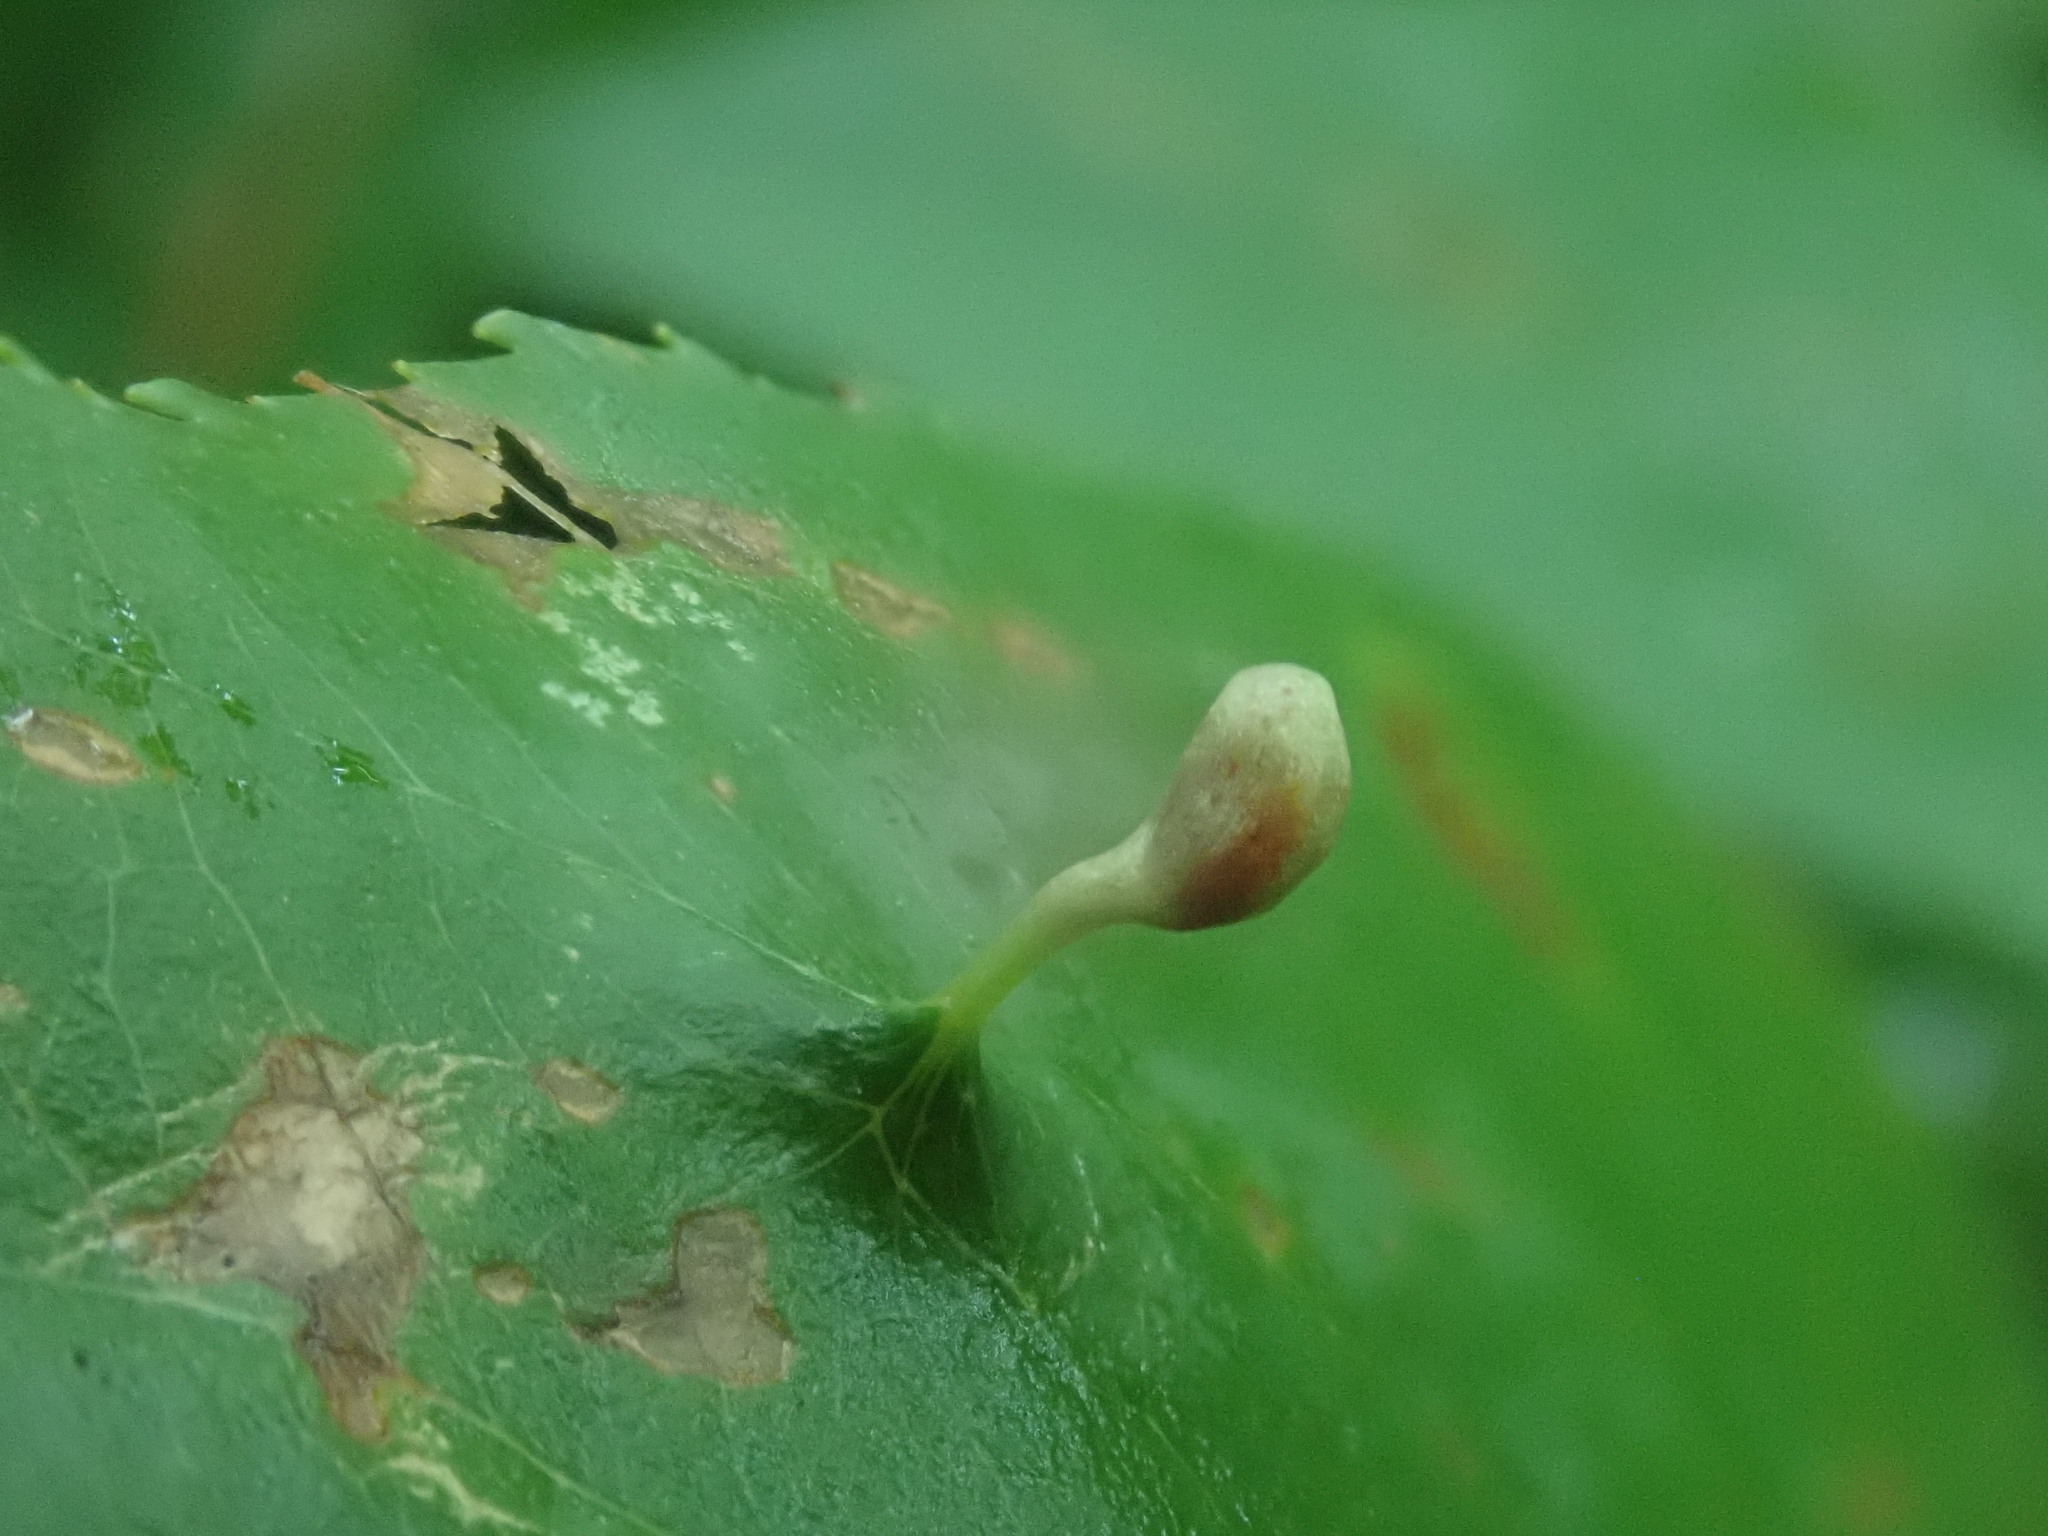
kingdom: Animalia
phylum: Arthropoda
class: Arachnida
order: Trombidiformes
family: Eriophyidae
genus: Eriophyes
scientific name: Eriophyes
